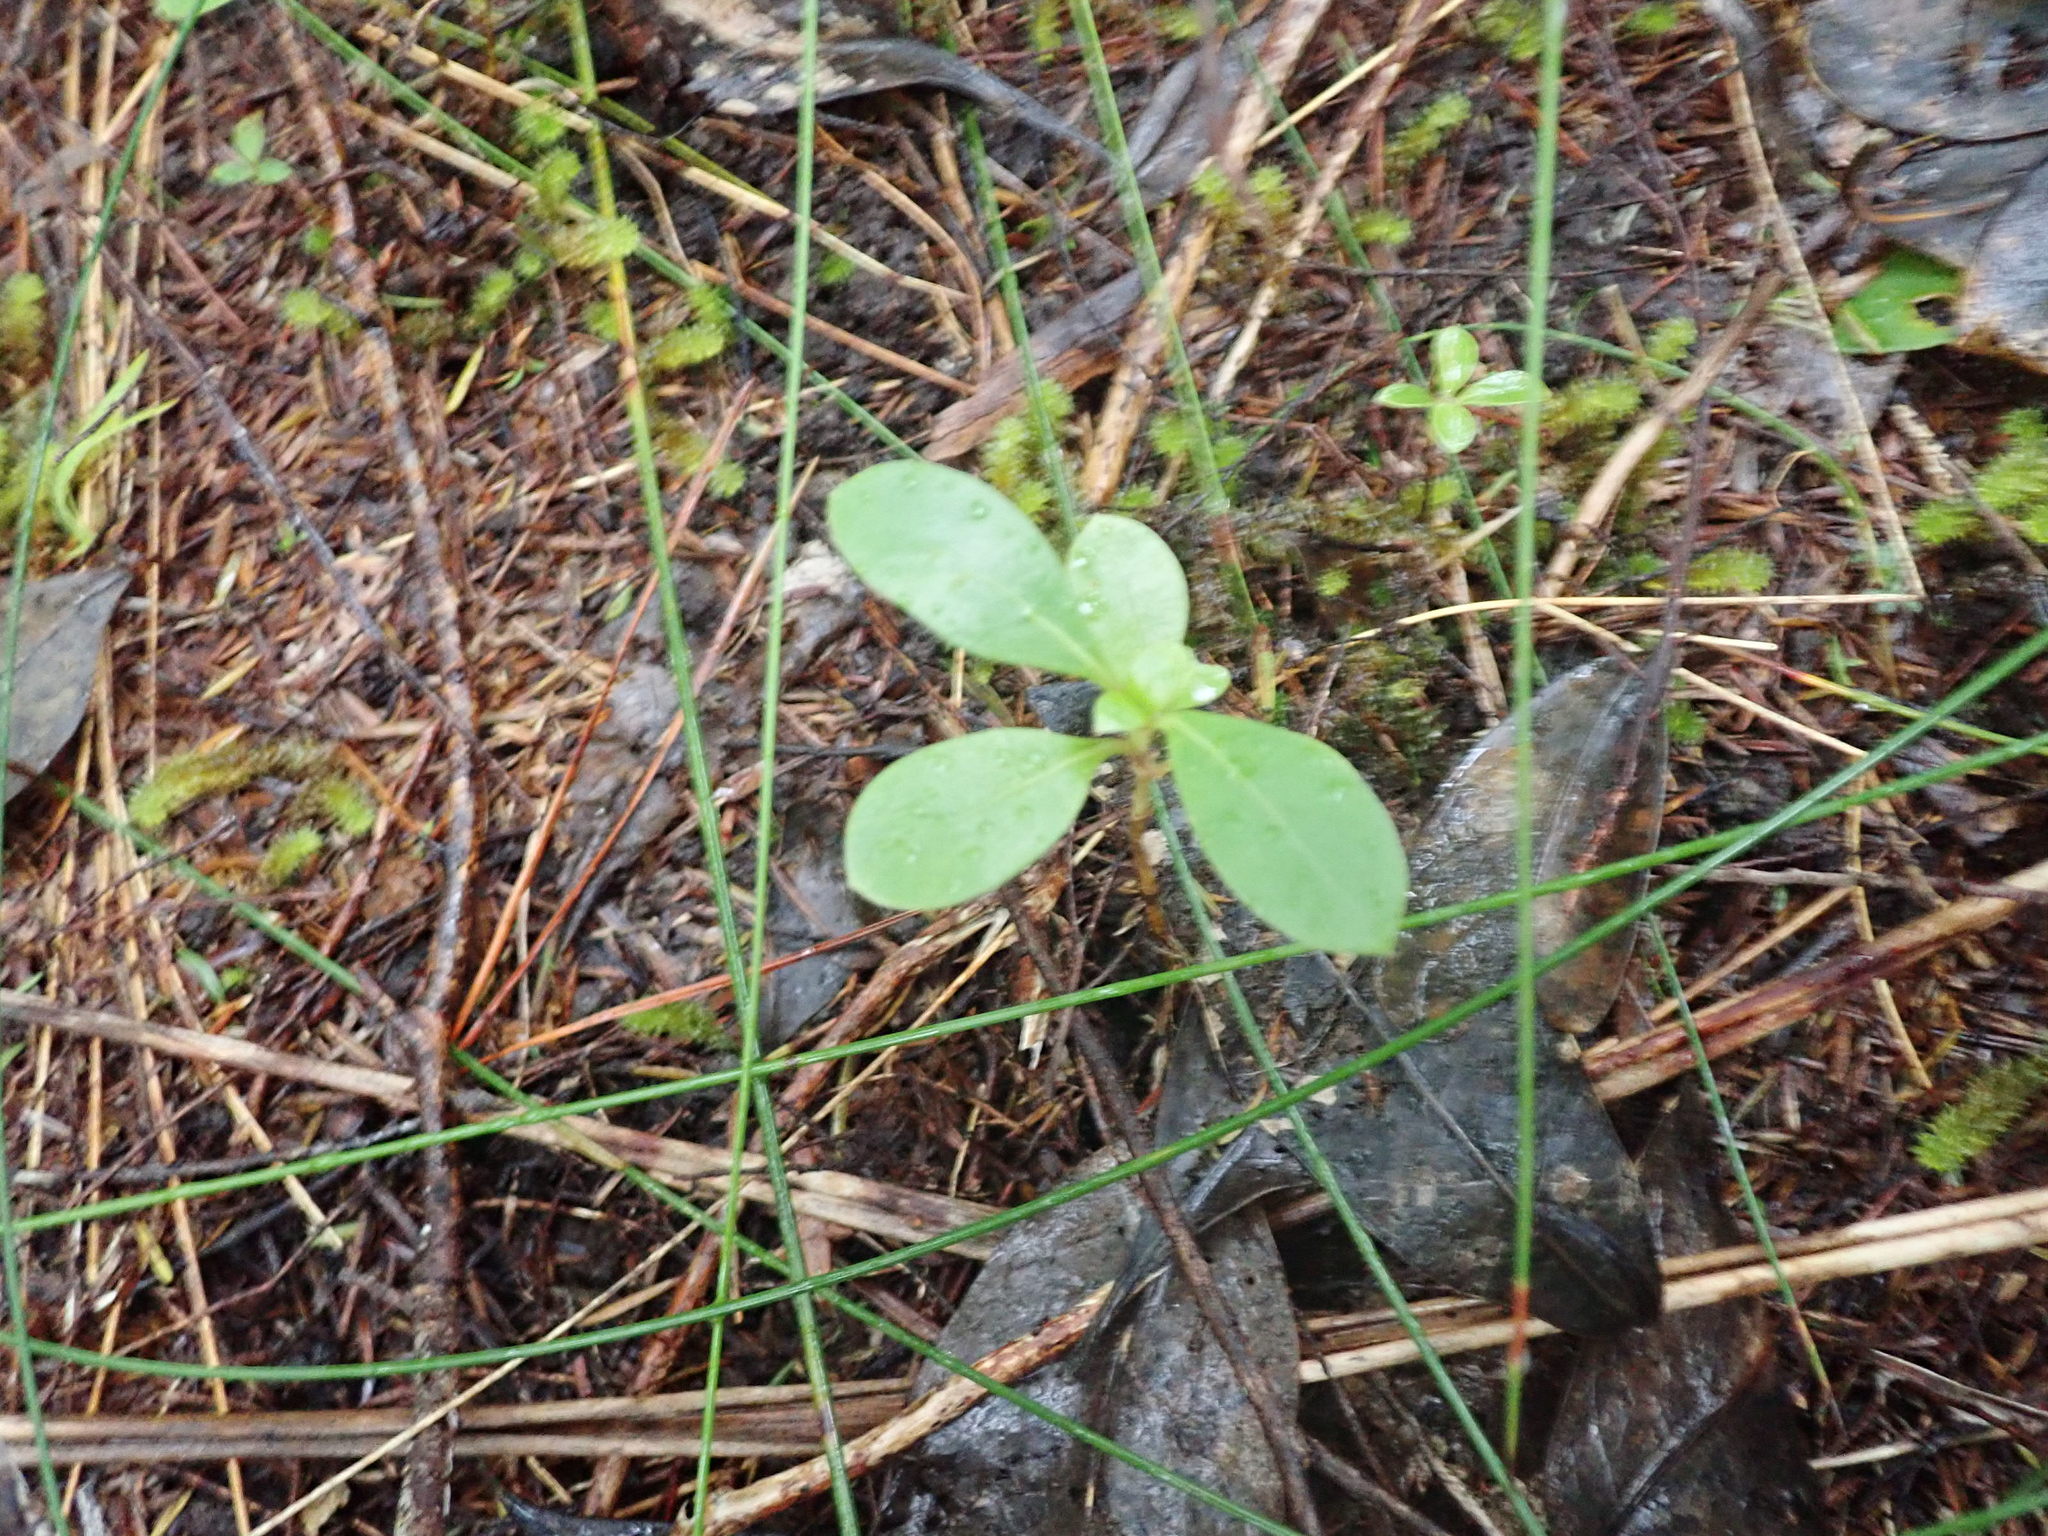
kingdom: Plantae
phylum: Tracheophyta
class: Magnoliopsida
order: Gentianales
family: Rubiaceae
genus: Coprosma
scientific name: Coprosma lucida
